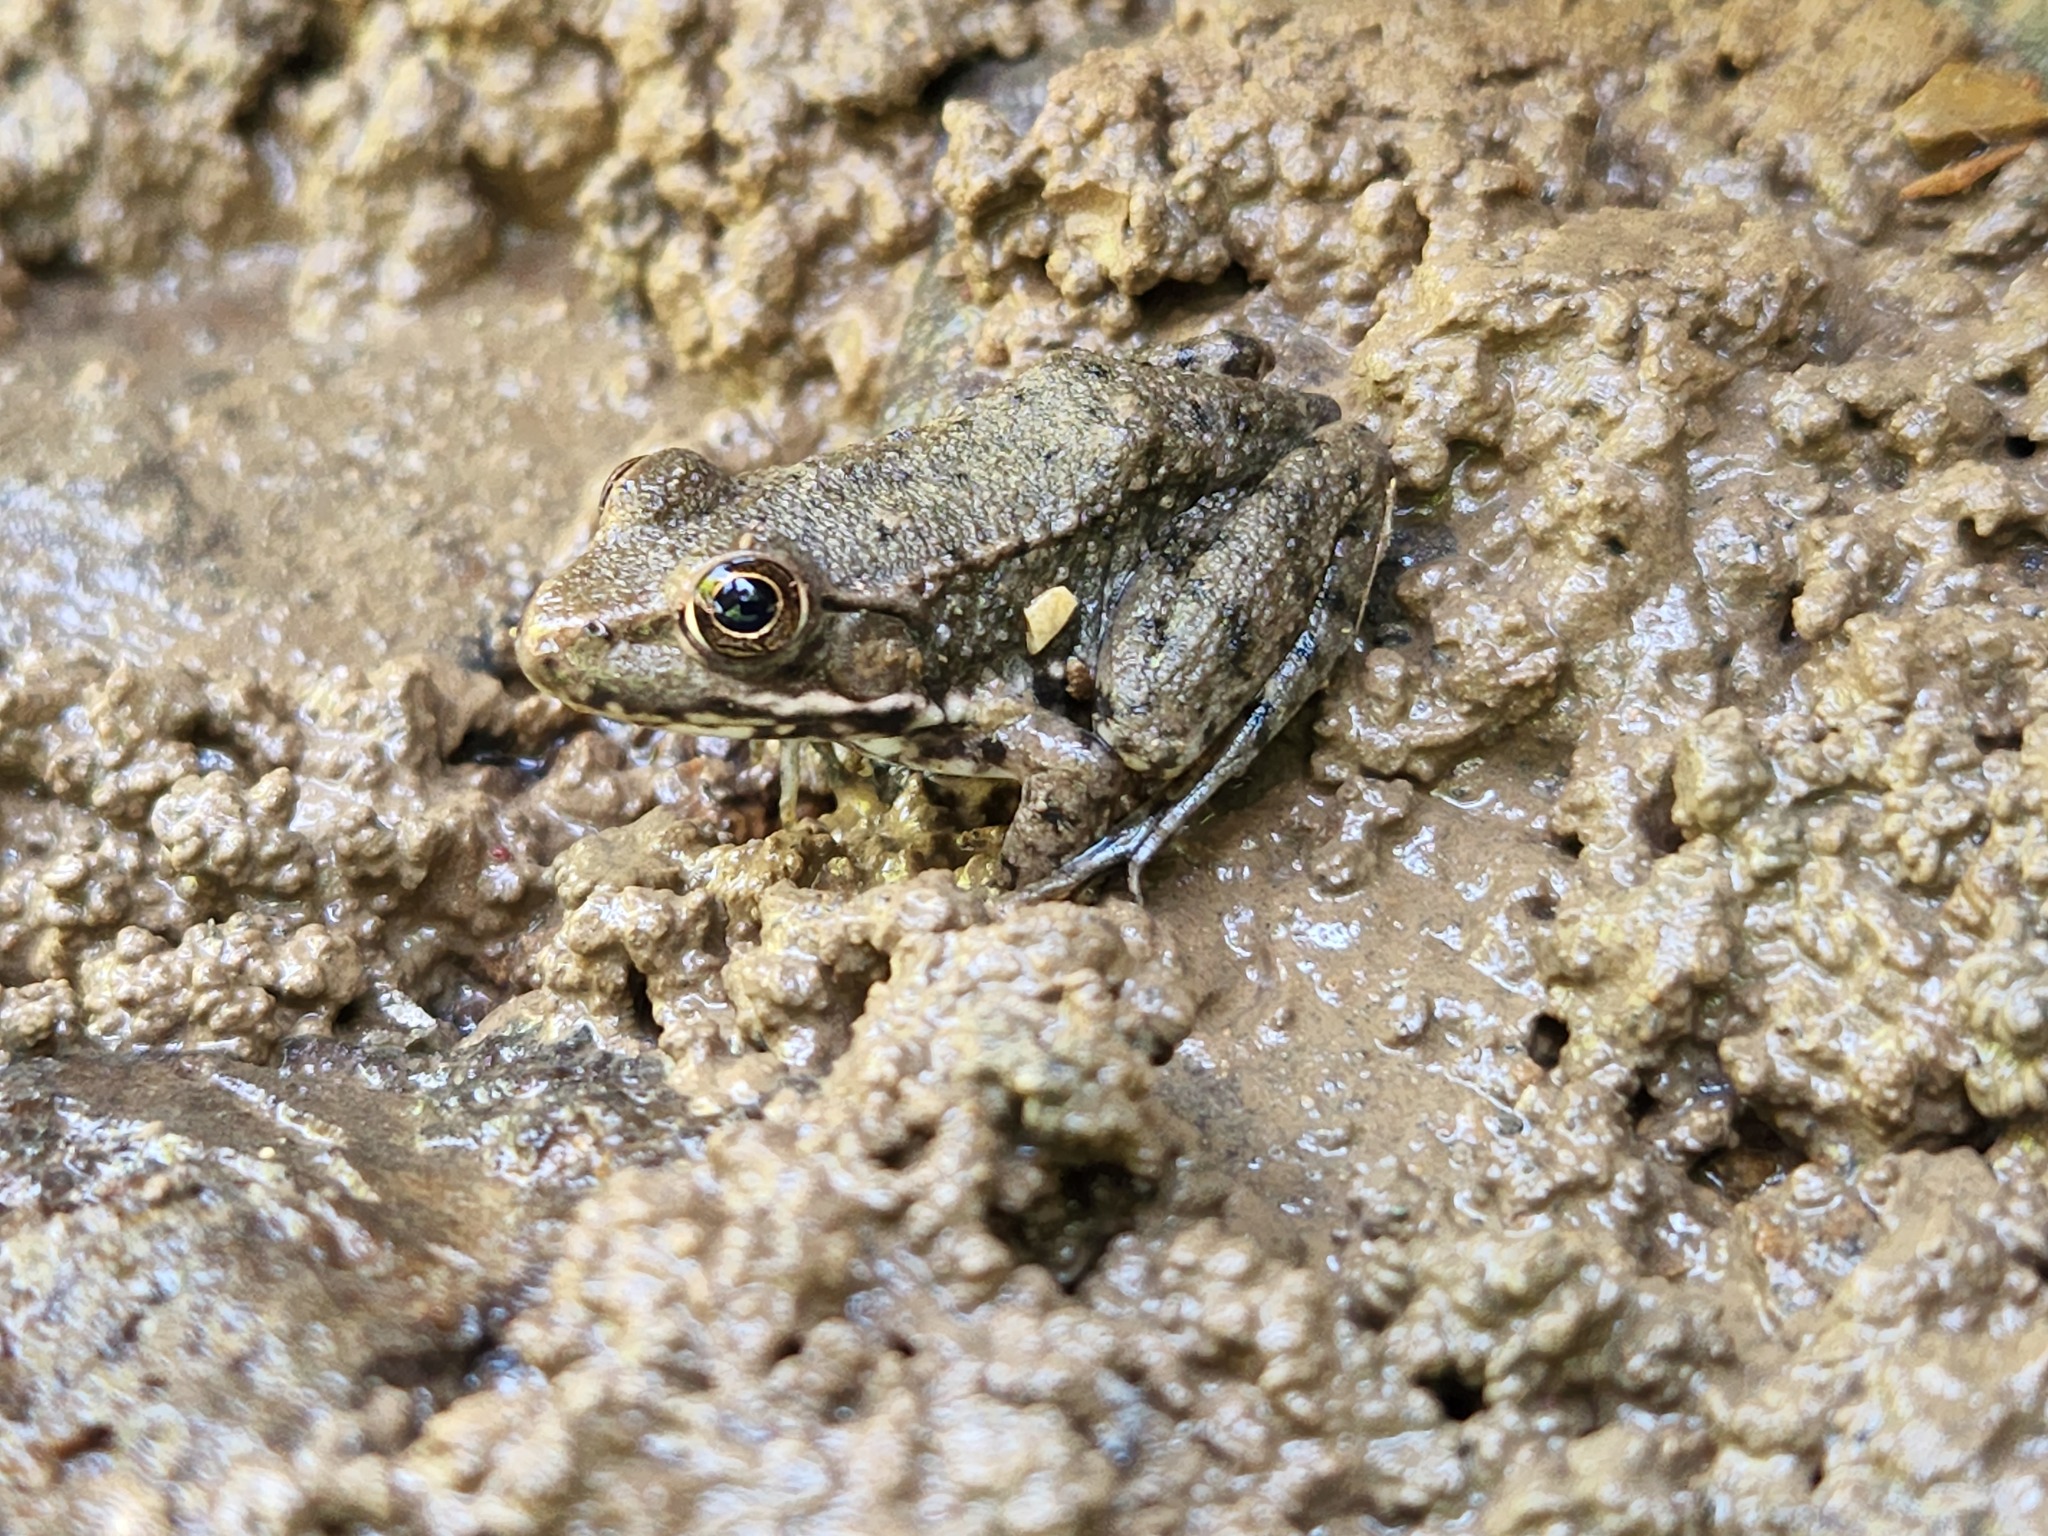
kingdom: Animalia
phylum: Chordata
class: Amphibia
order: Anura
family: Ranidae
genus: Lithobates
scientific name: Lithobates clamitans
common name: Green frog
